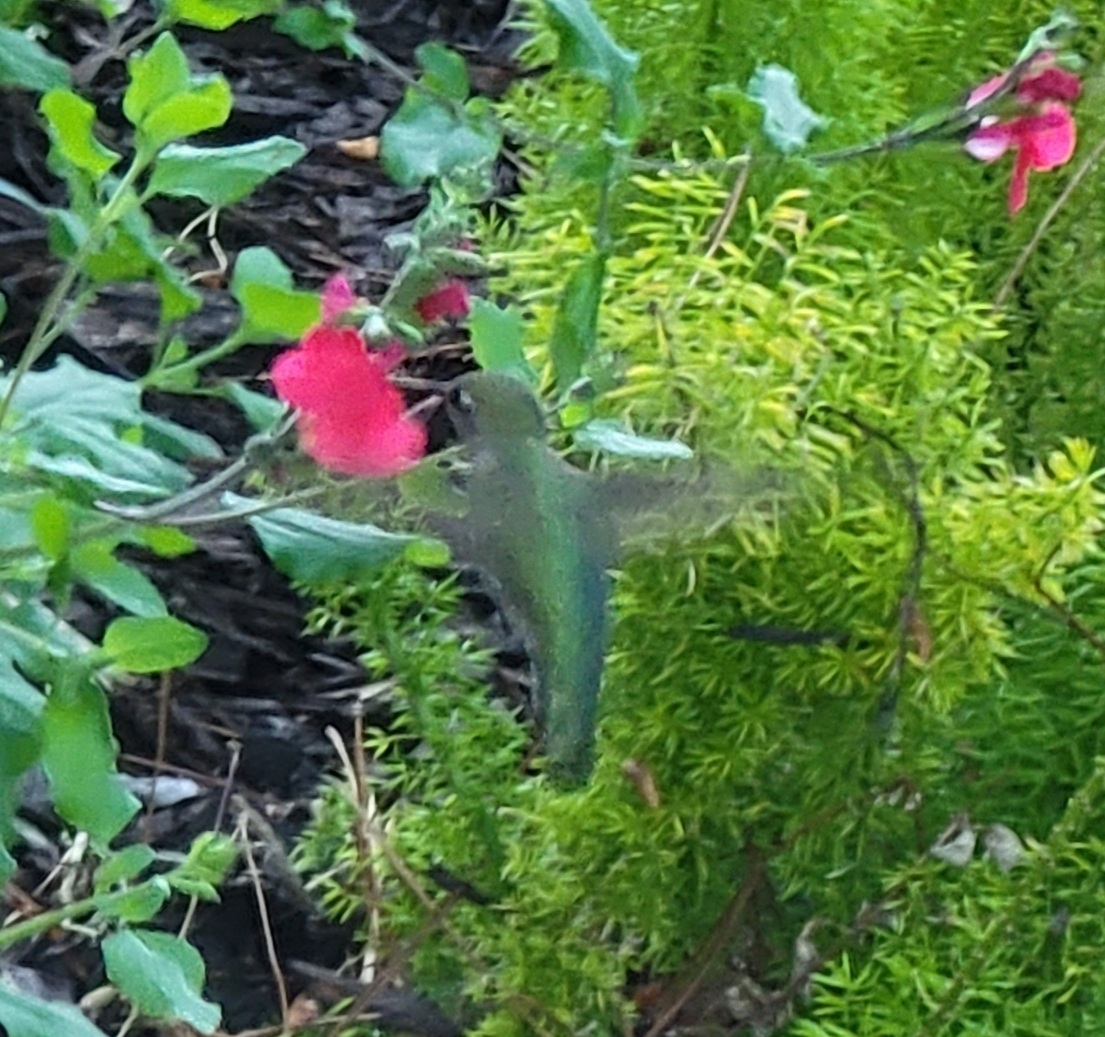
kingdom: Animalia
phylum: Chordata
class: Aves
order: Apodiformes
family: Trochilidae
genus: Calypte
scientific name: Calypte anna
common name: Anna's hummingbird
